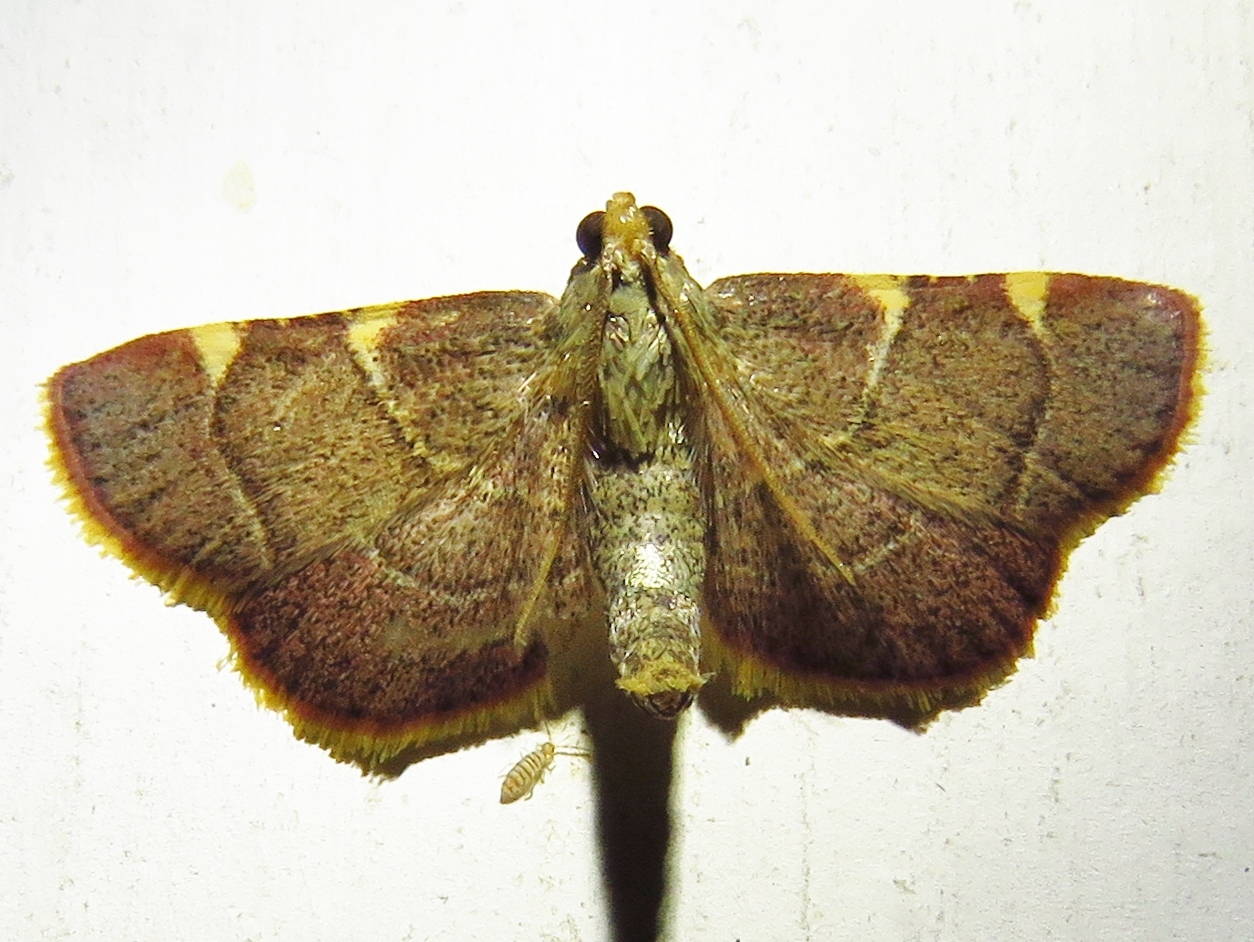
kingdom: Animalia
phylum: Arthropoda
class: Insecta
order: Lepidoptera
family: Pyralidae
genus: Hypsopygia
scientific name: Hypsopygia olinalis
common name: Yellow-fringed dolichomia moth
